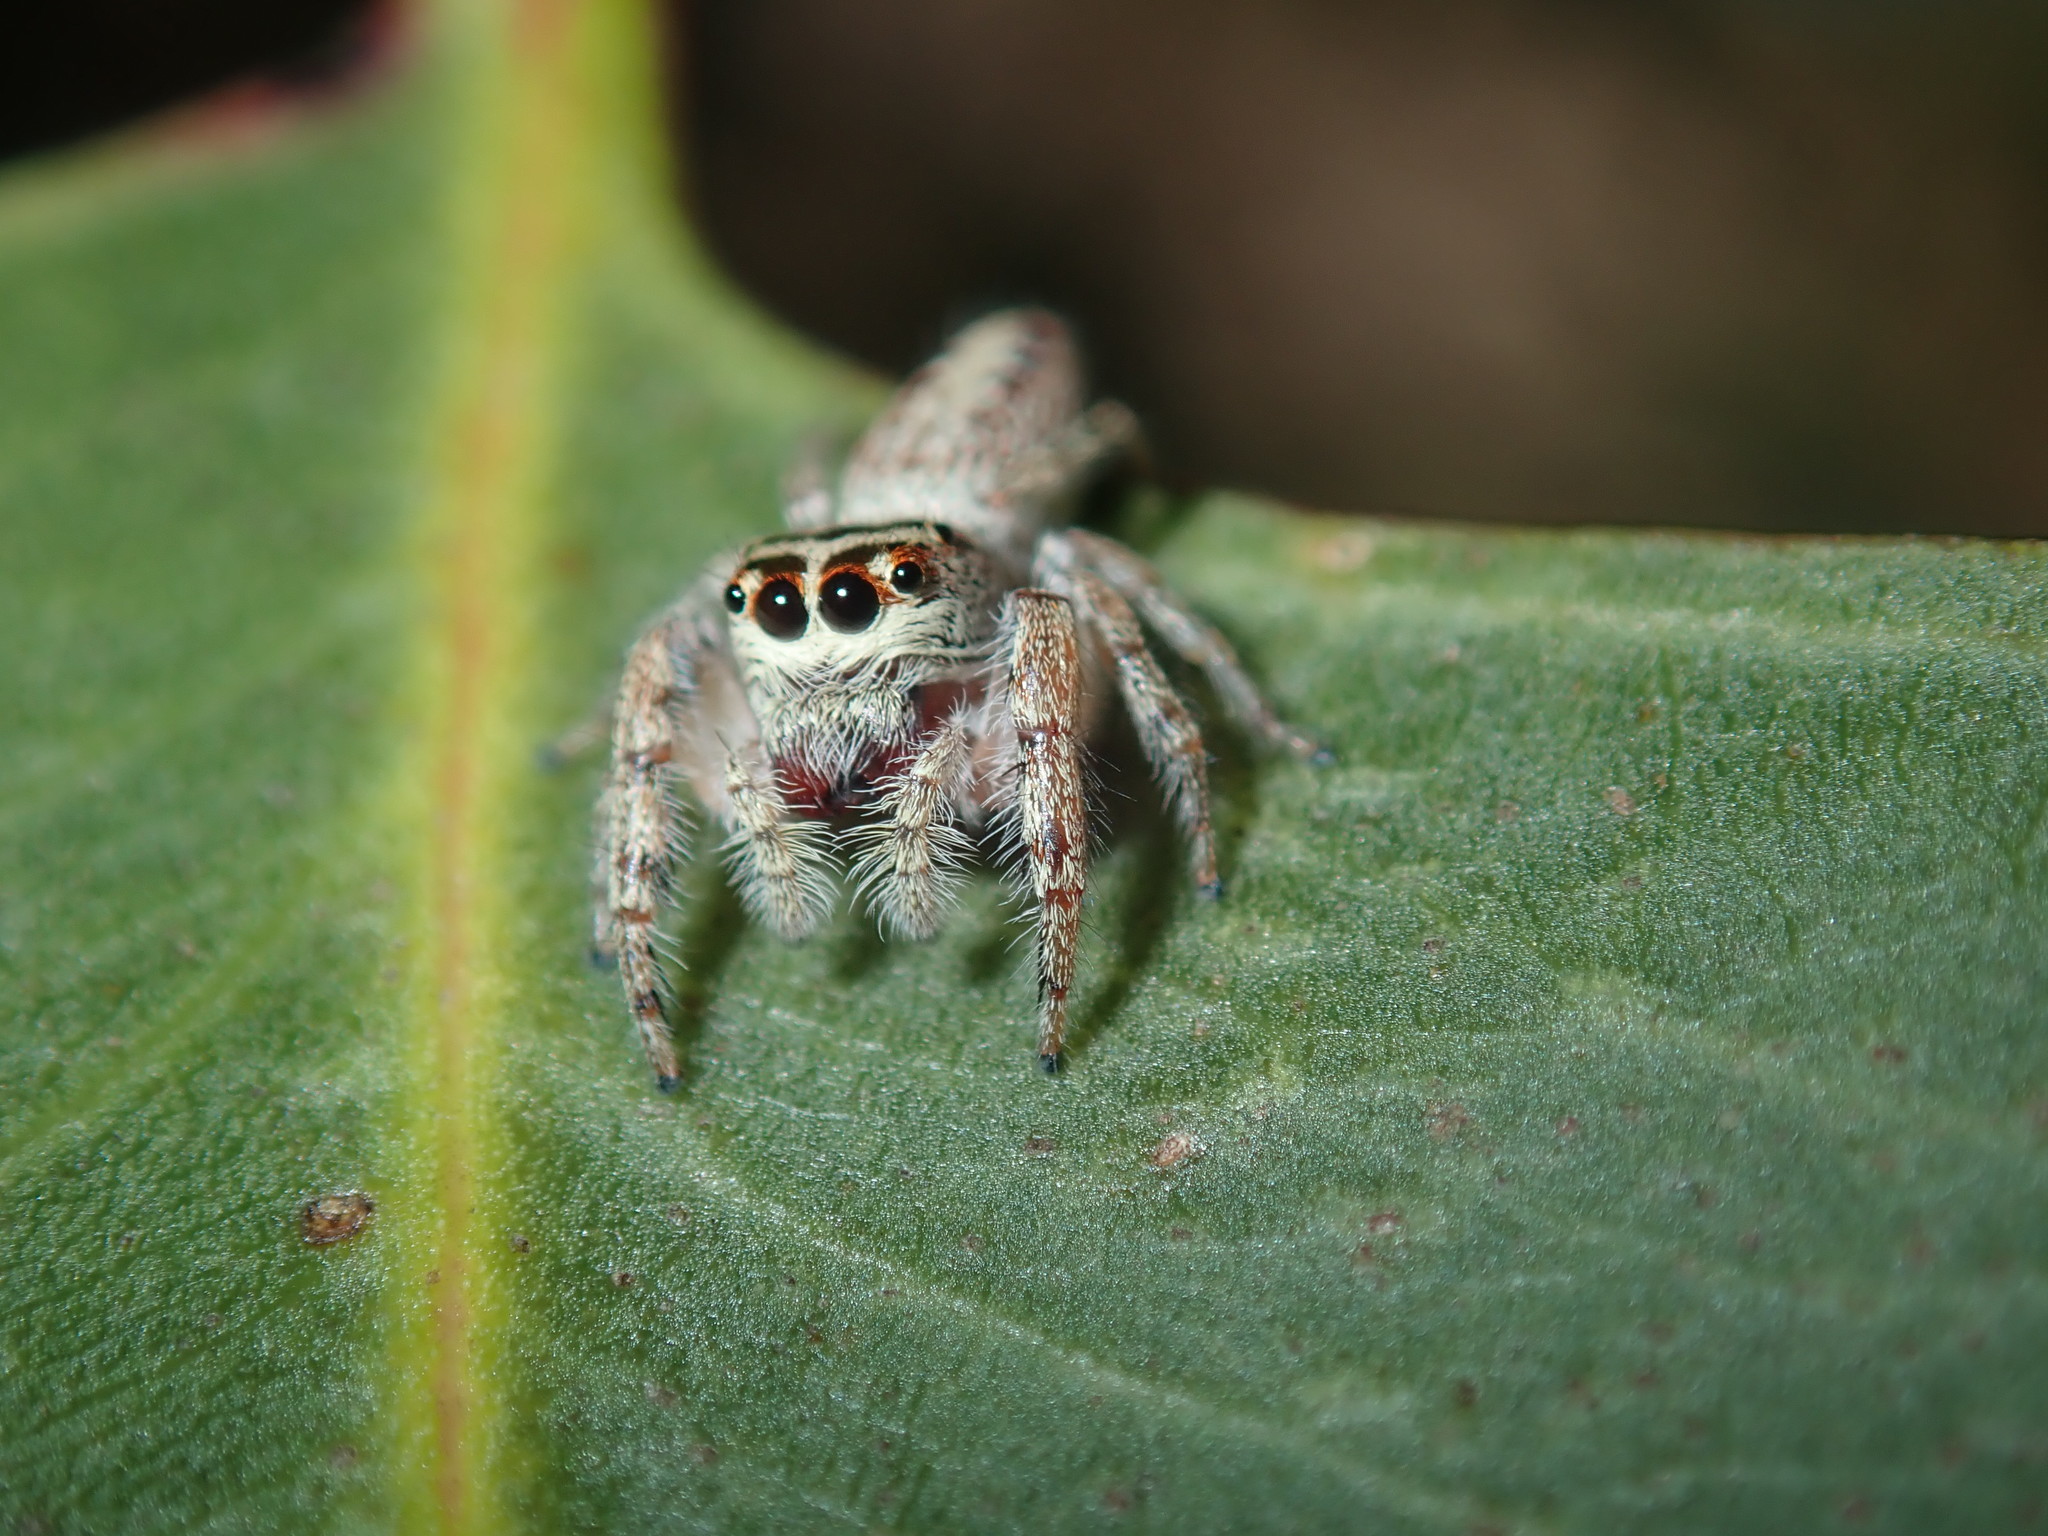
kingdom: Animalia
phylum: Arthropoda
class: Arachnida
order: Araneae
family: Salticidae
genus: Opisthoncus
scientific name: Opisthoncus nigrofemoratus
